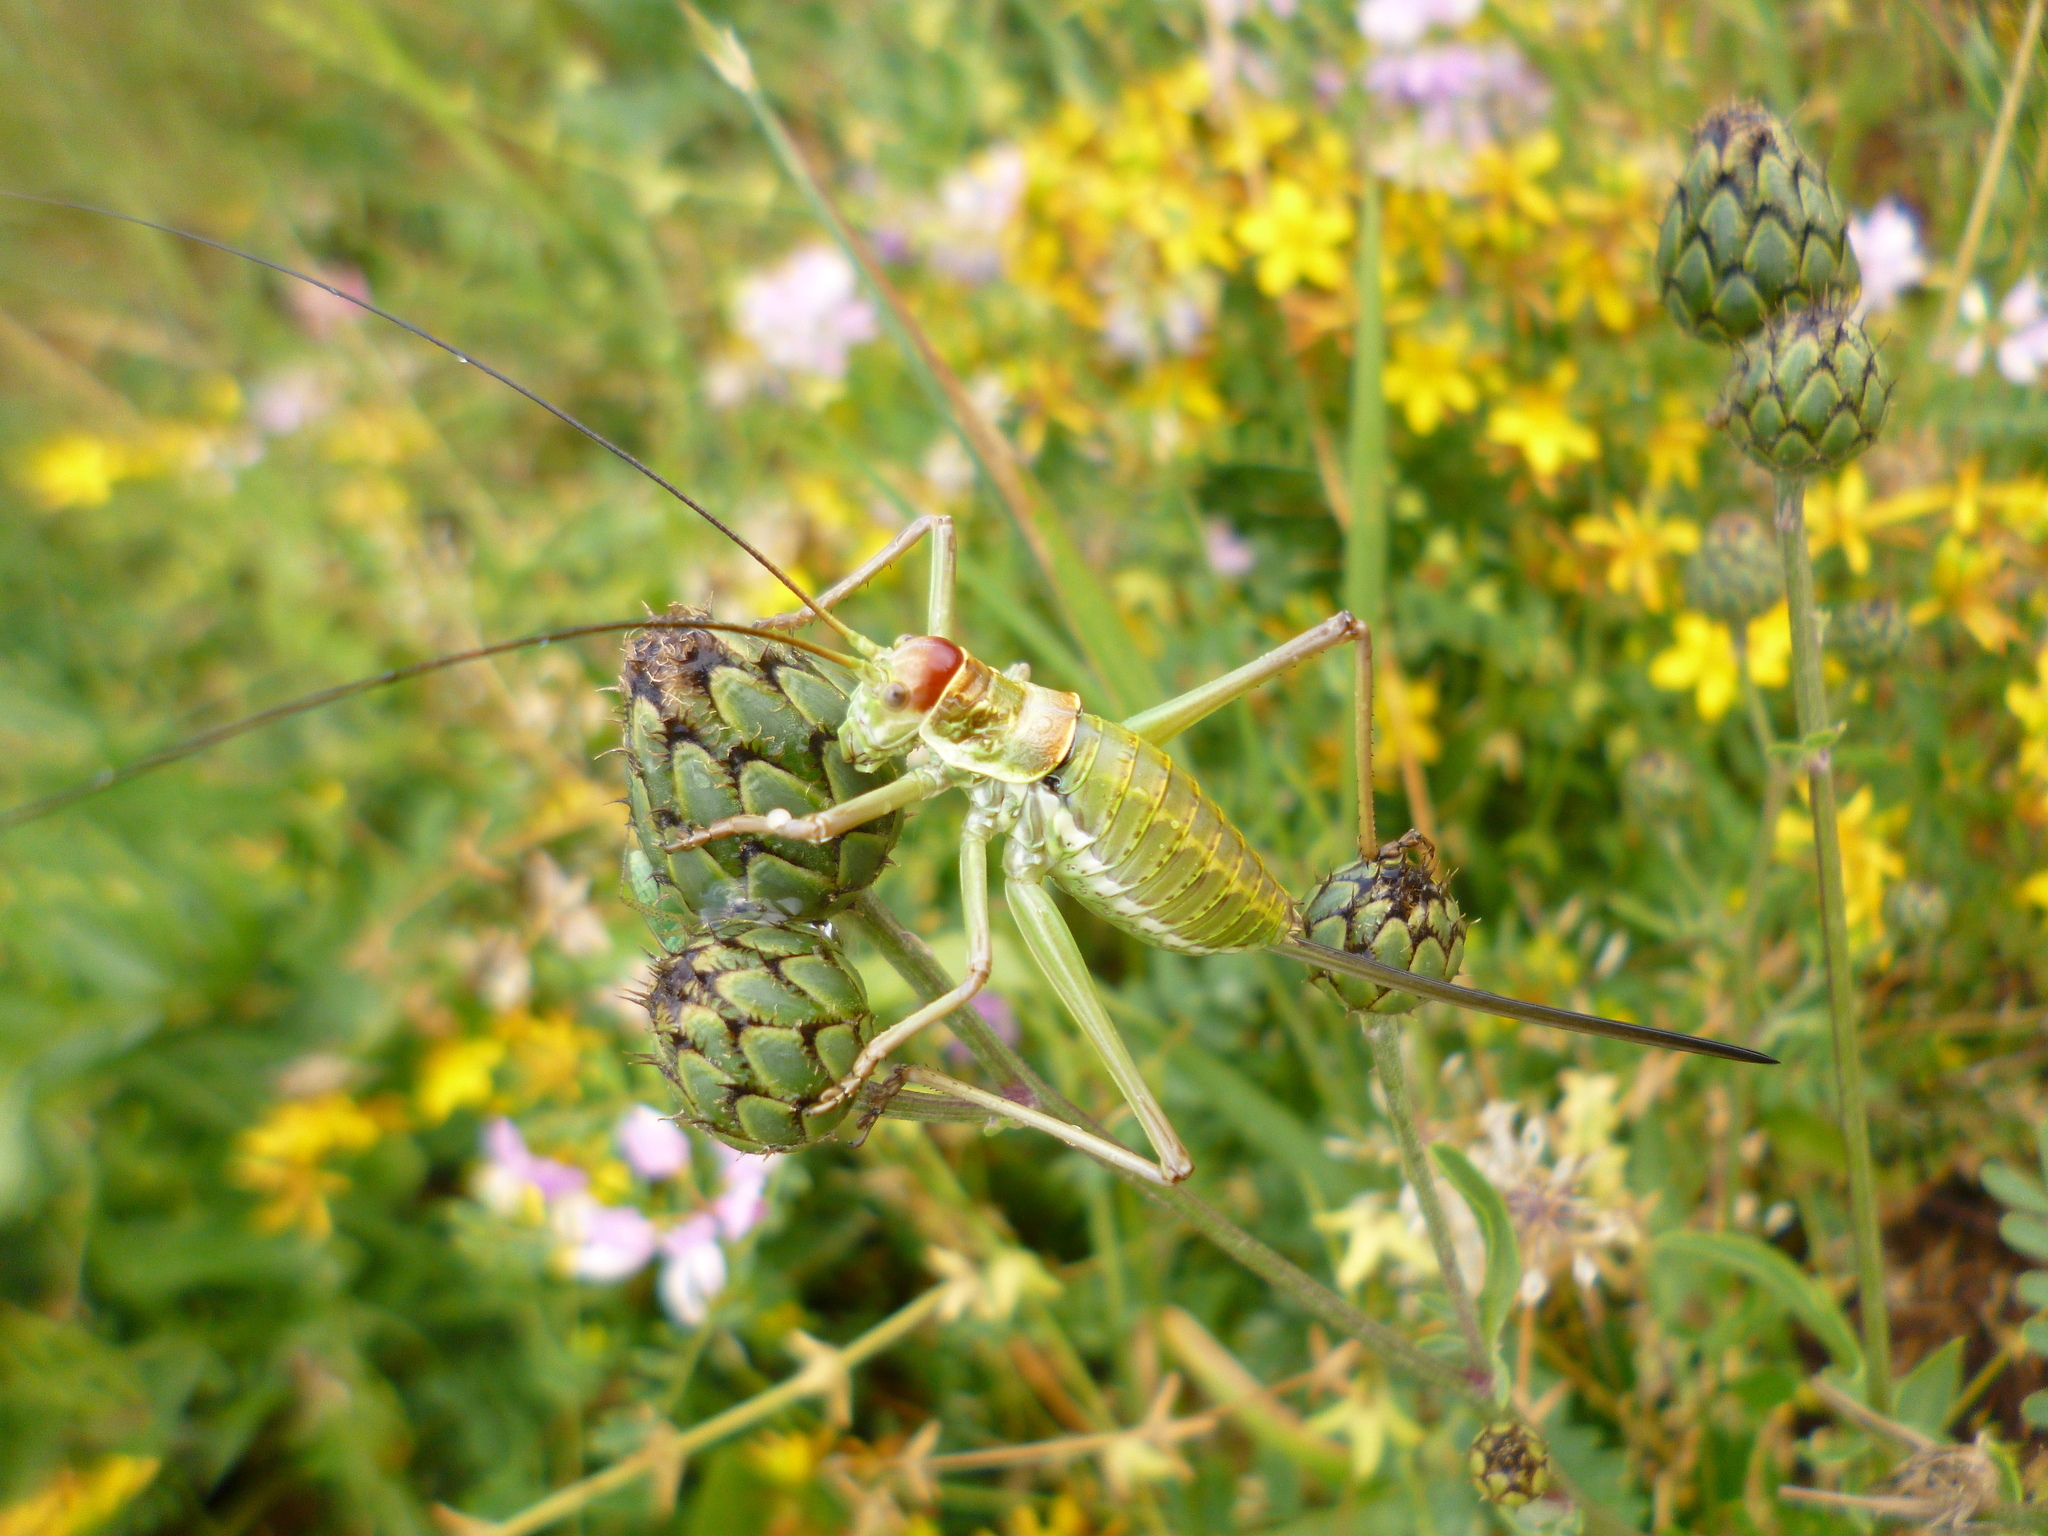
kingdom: Animalia
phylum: Arthropoda
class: Insecta
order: Orthoptera
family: Tettigoniidae
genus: Dinarippiger
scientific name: Dinarippiger discoidalis
